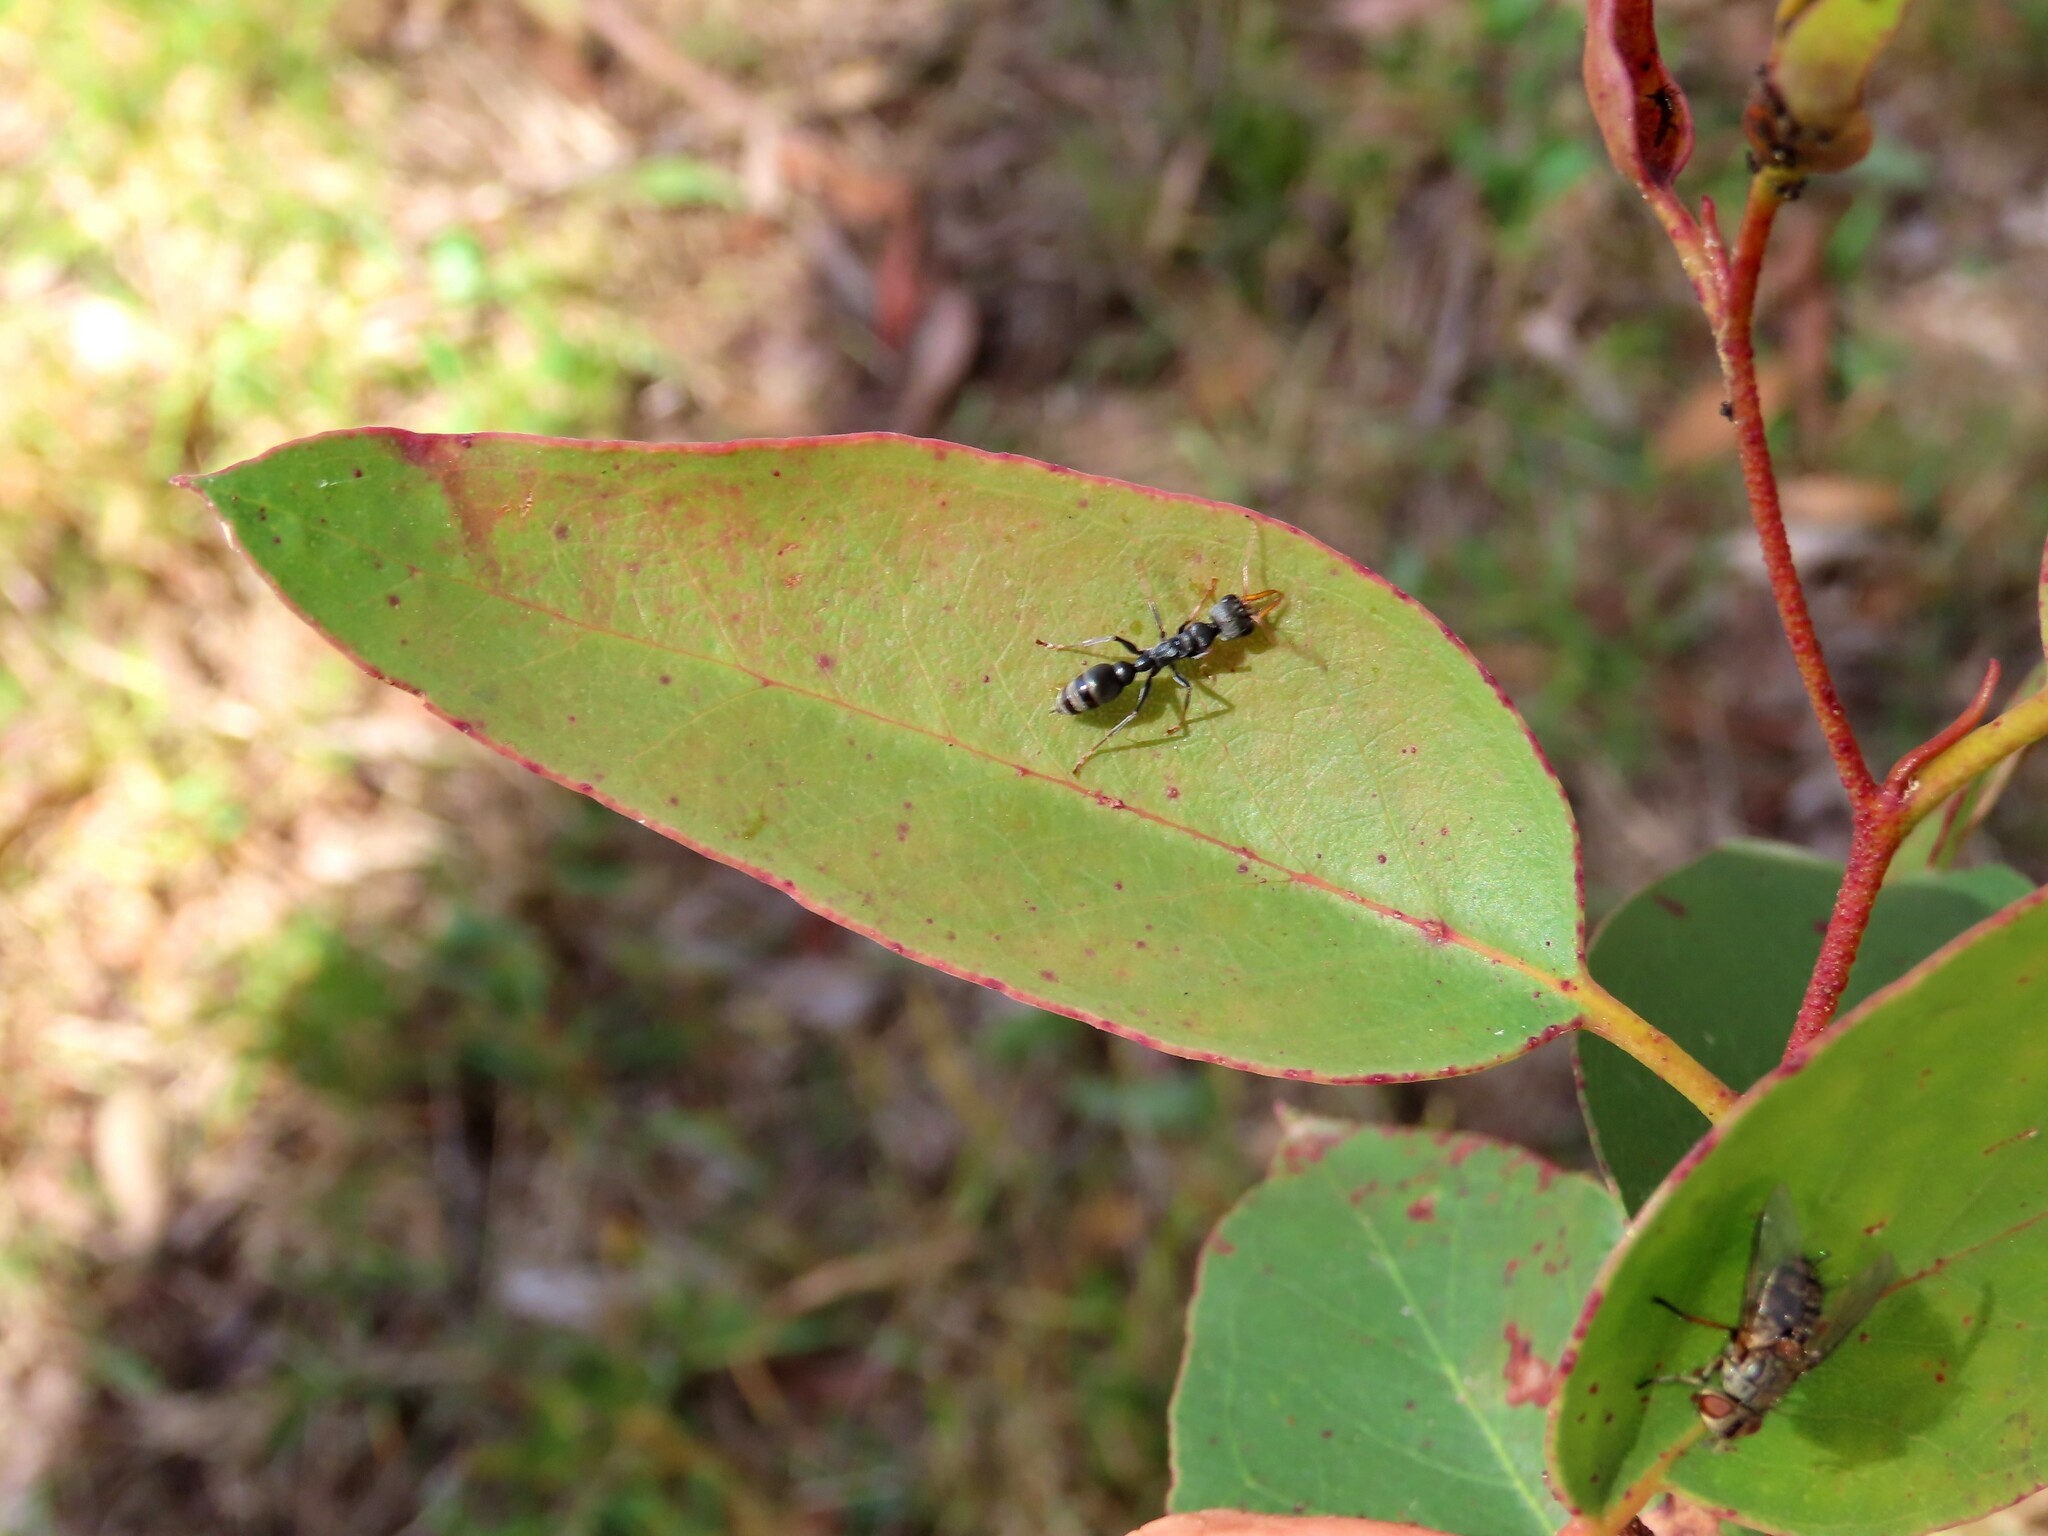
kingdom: Animalia
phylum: Arthropoda
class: Insecta
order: Hymenoptera
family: Formicidae
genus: Myrmecia
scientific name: Myrmecia pilosula
